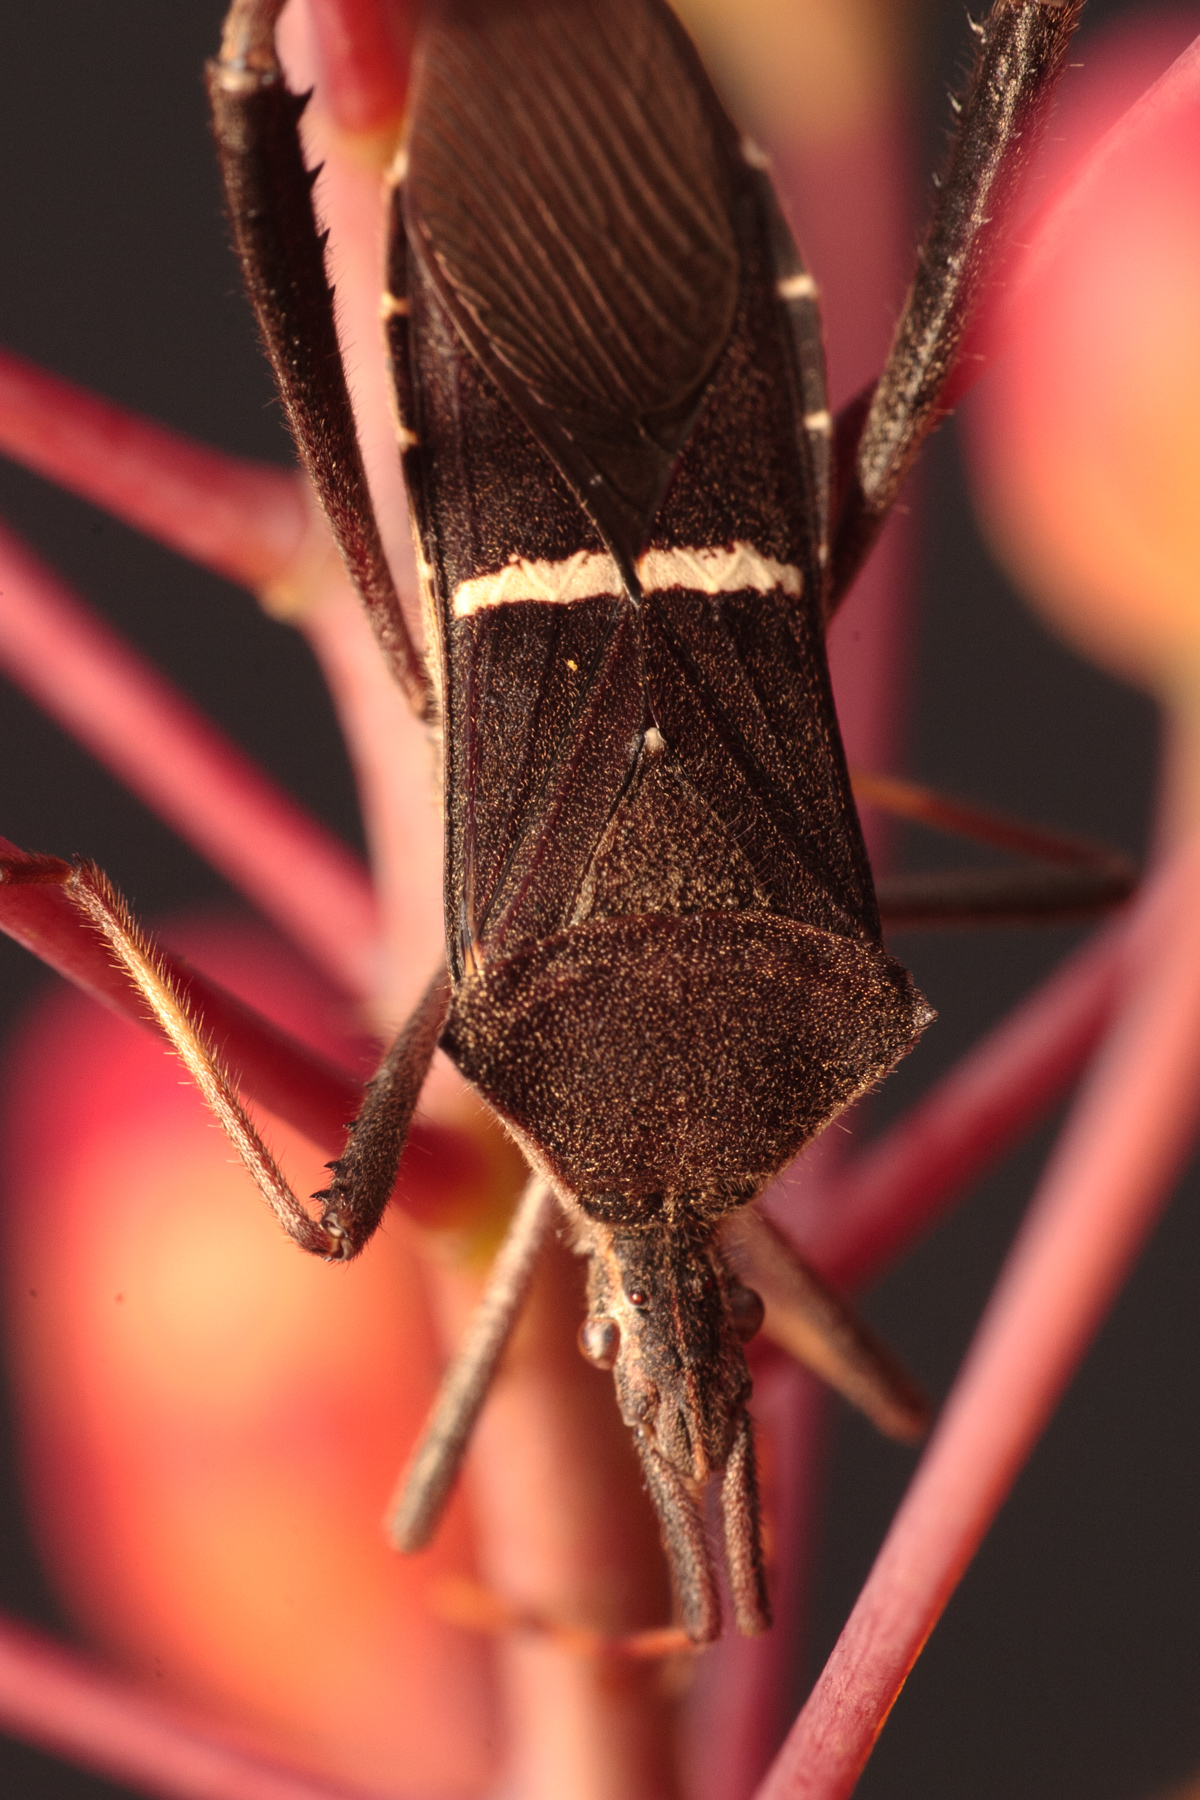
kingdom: Animalia
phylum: Arthropoda
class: Insecta
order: Hemiptera
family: Coreidae
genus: Leptoglossus
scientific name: Leptoglossus phyllopus
